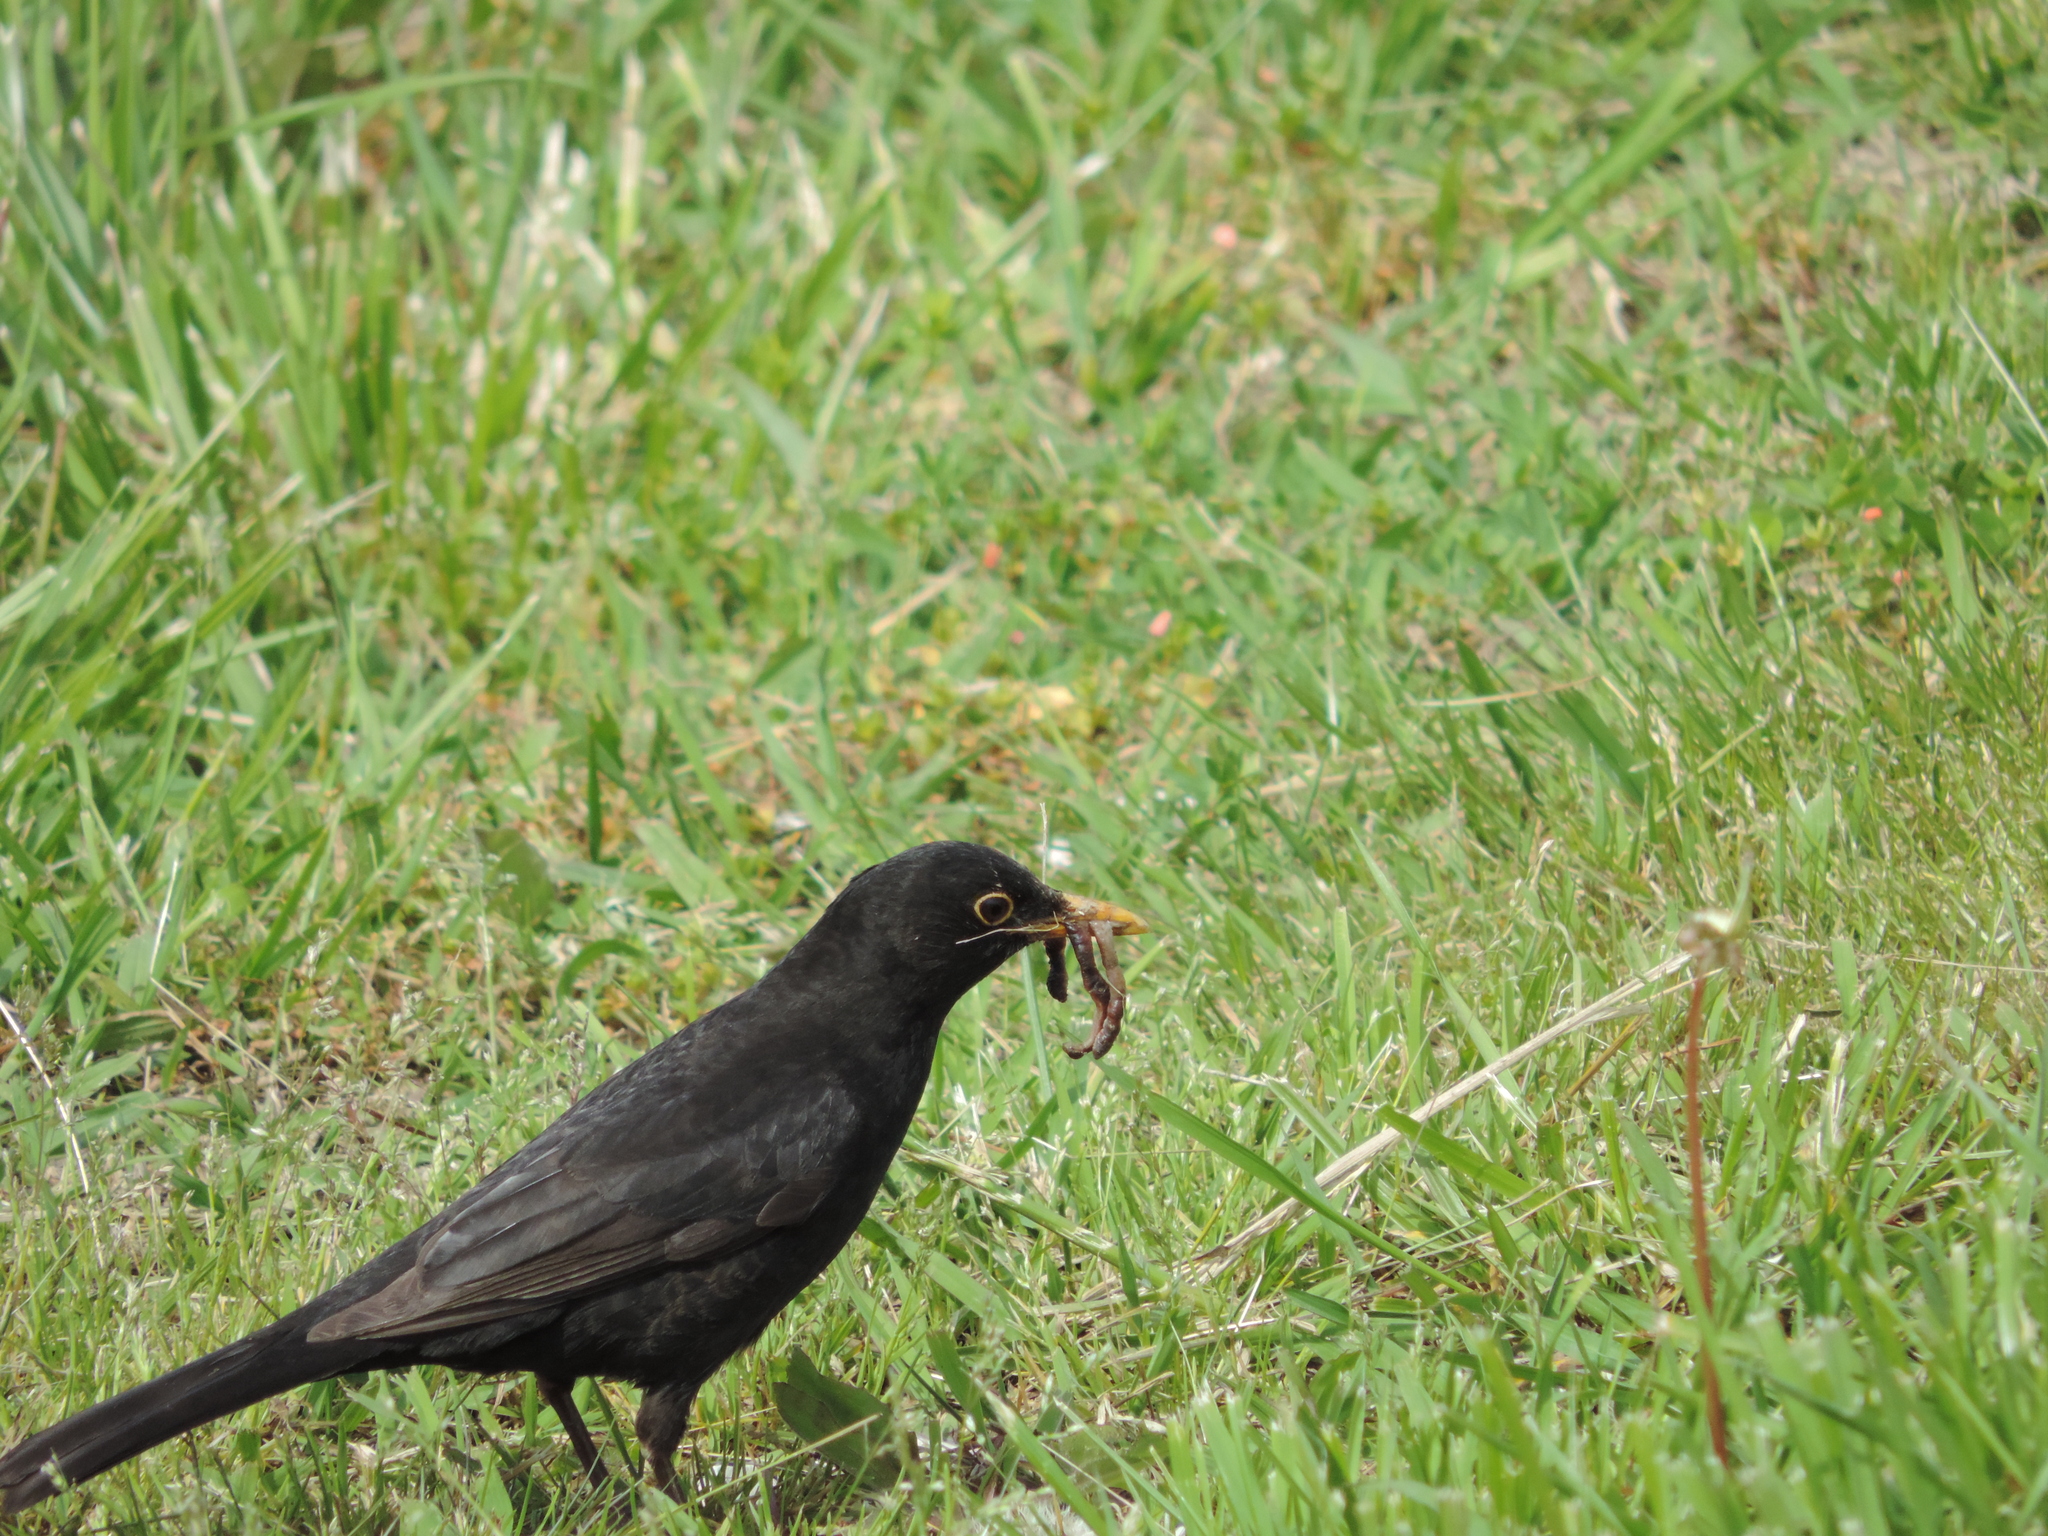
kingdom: Animalia
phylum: Chordata
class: Aves
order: Passeriformes
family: Turdidae
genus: Turdus
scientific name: Turdus merula
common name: Common blackbird
